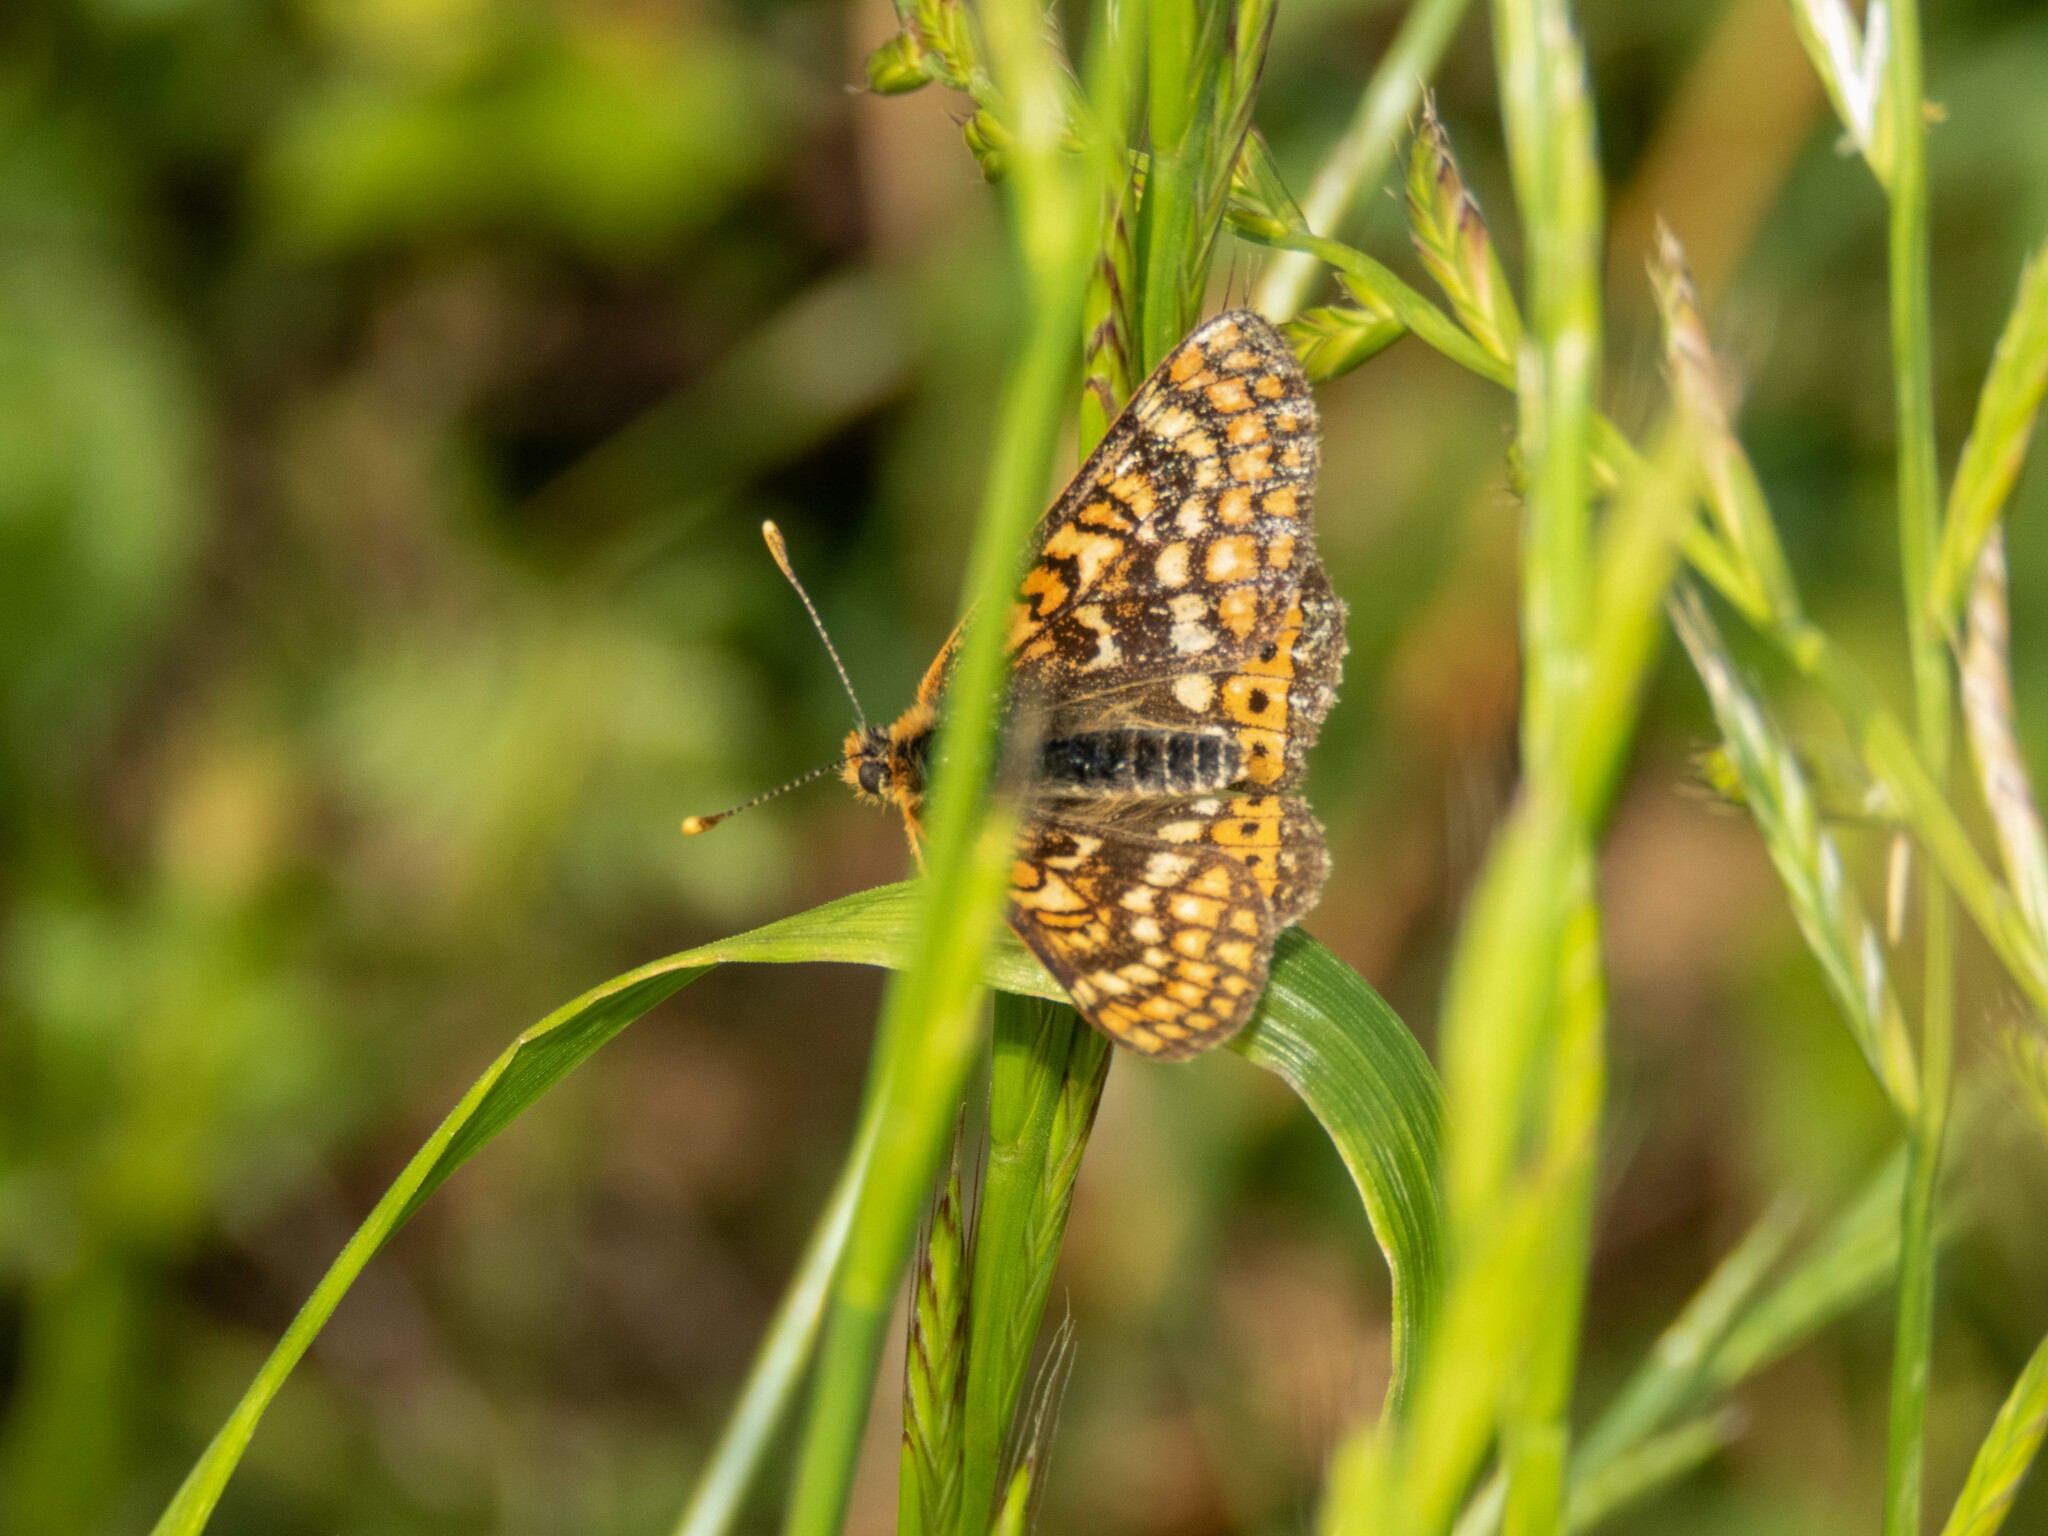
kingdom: Animalia
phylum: Arthropoda
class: Insecta
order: Lepidoptera
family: Nymphalidae
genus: Euphydryas
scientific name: Euphydryas aurinia
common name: Marsh fritillary
